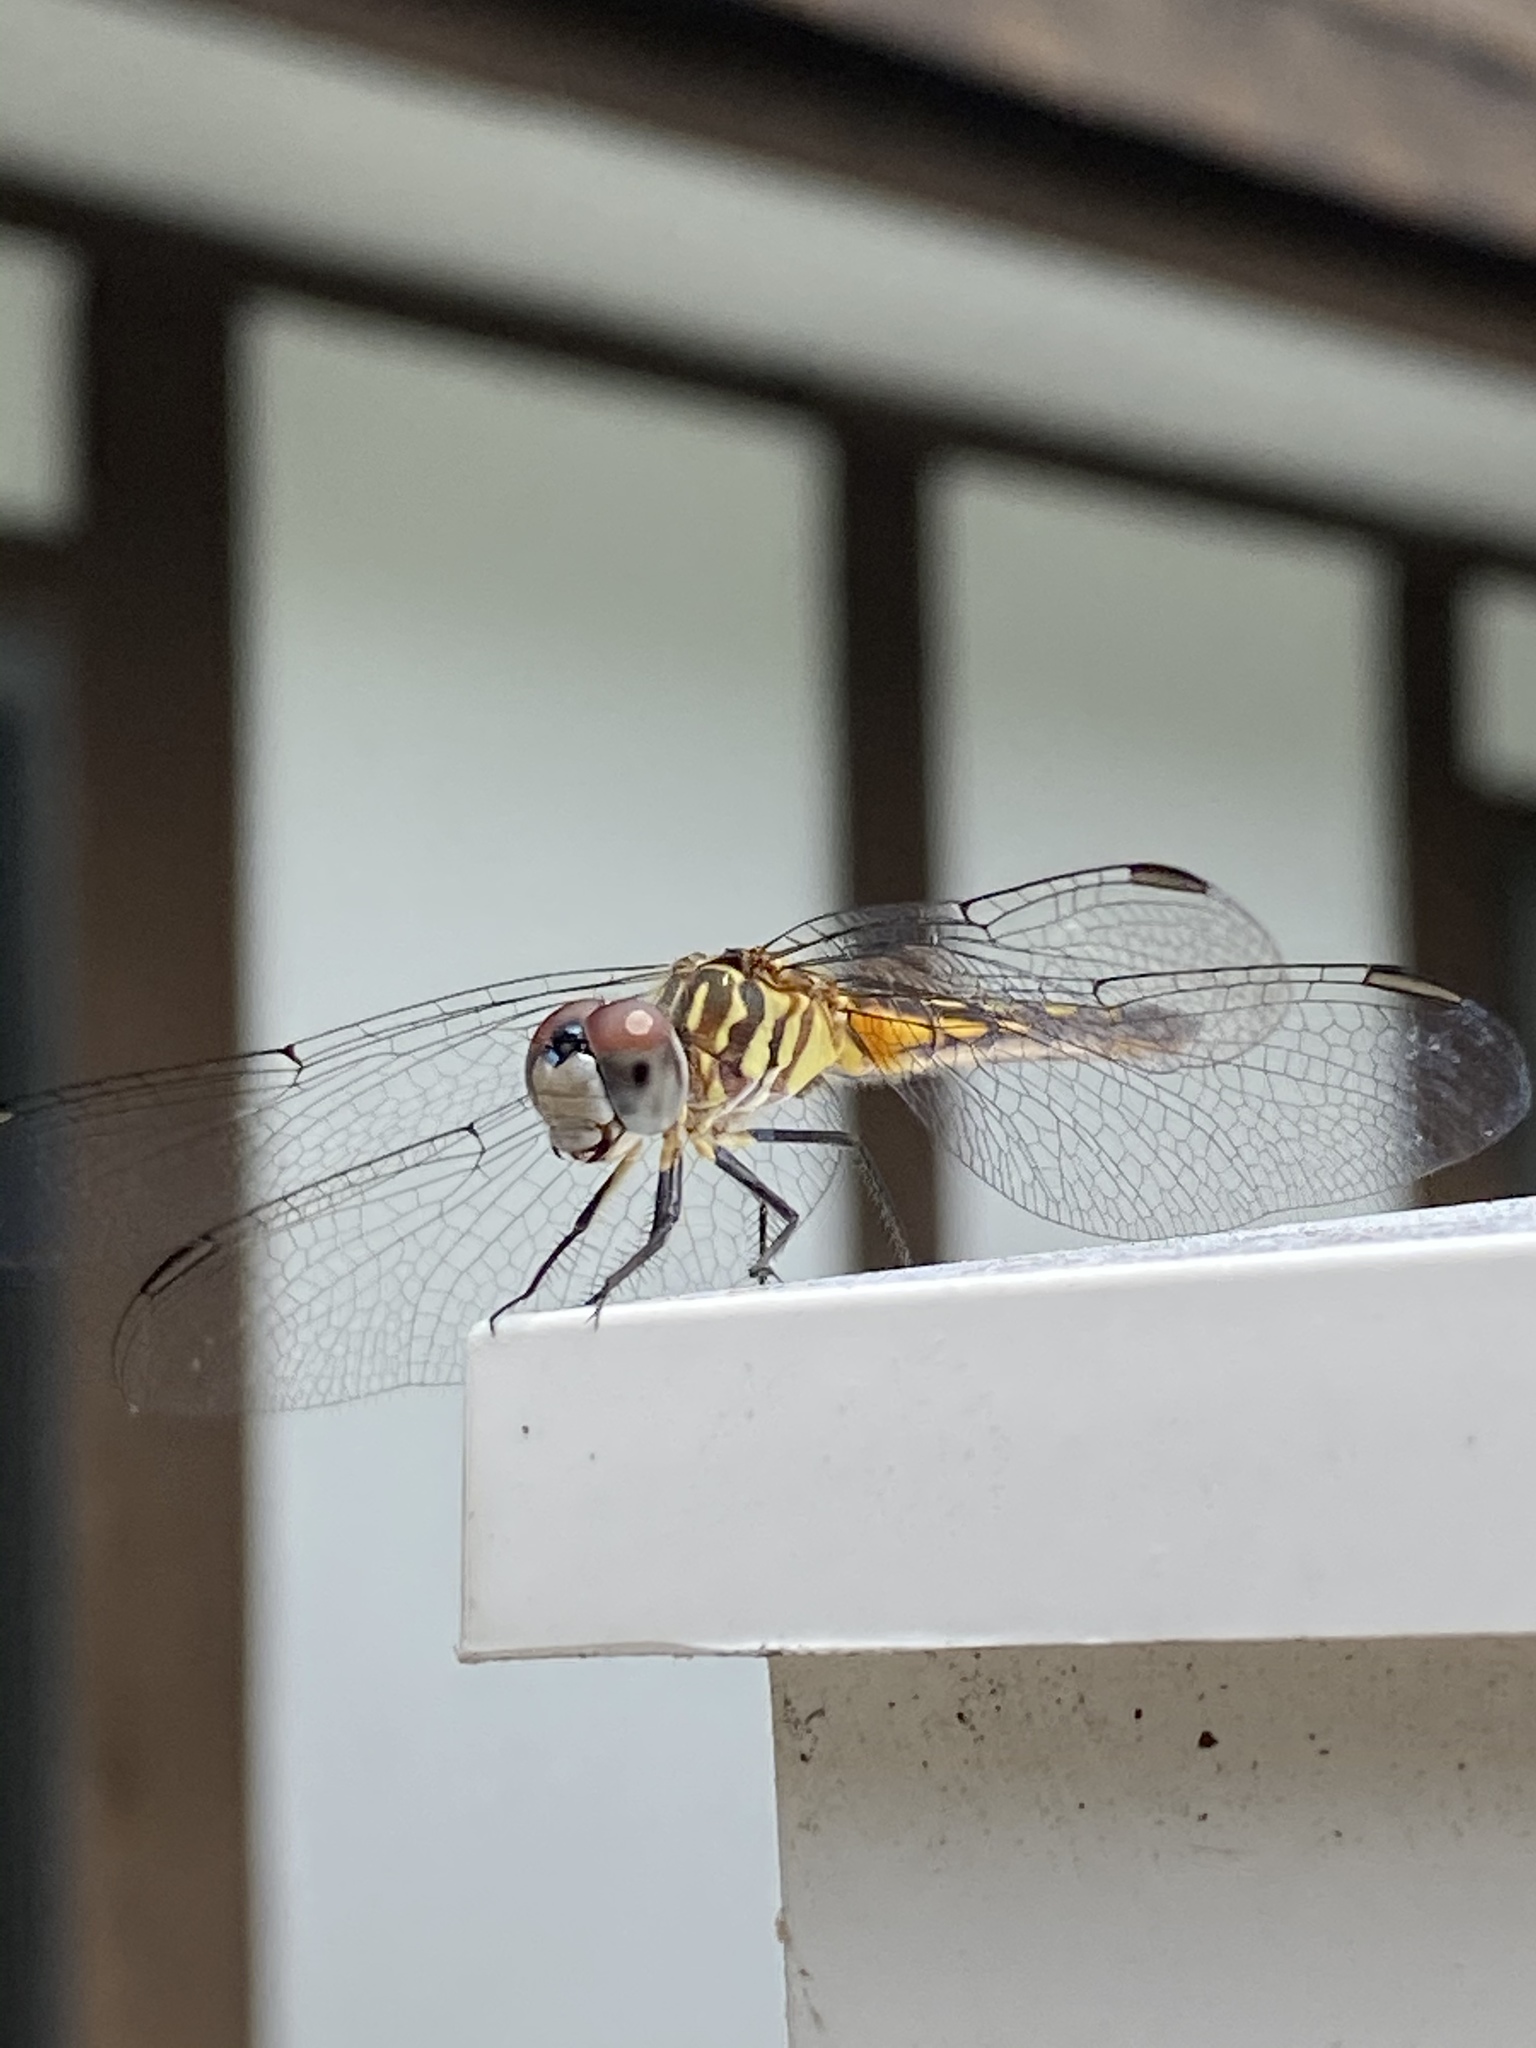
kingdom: Animalia
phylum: Arthropoda
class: Insecta
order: Odonata
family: Libellulidae
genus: Pachydiplax
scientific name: Pachydiplax longipennis
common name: Blue dasher
